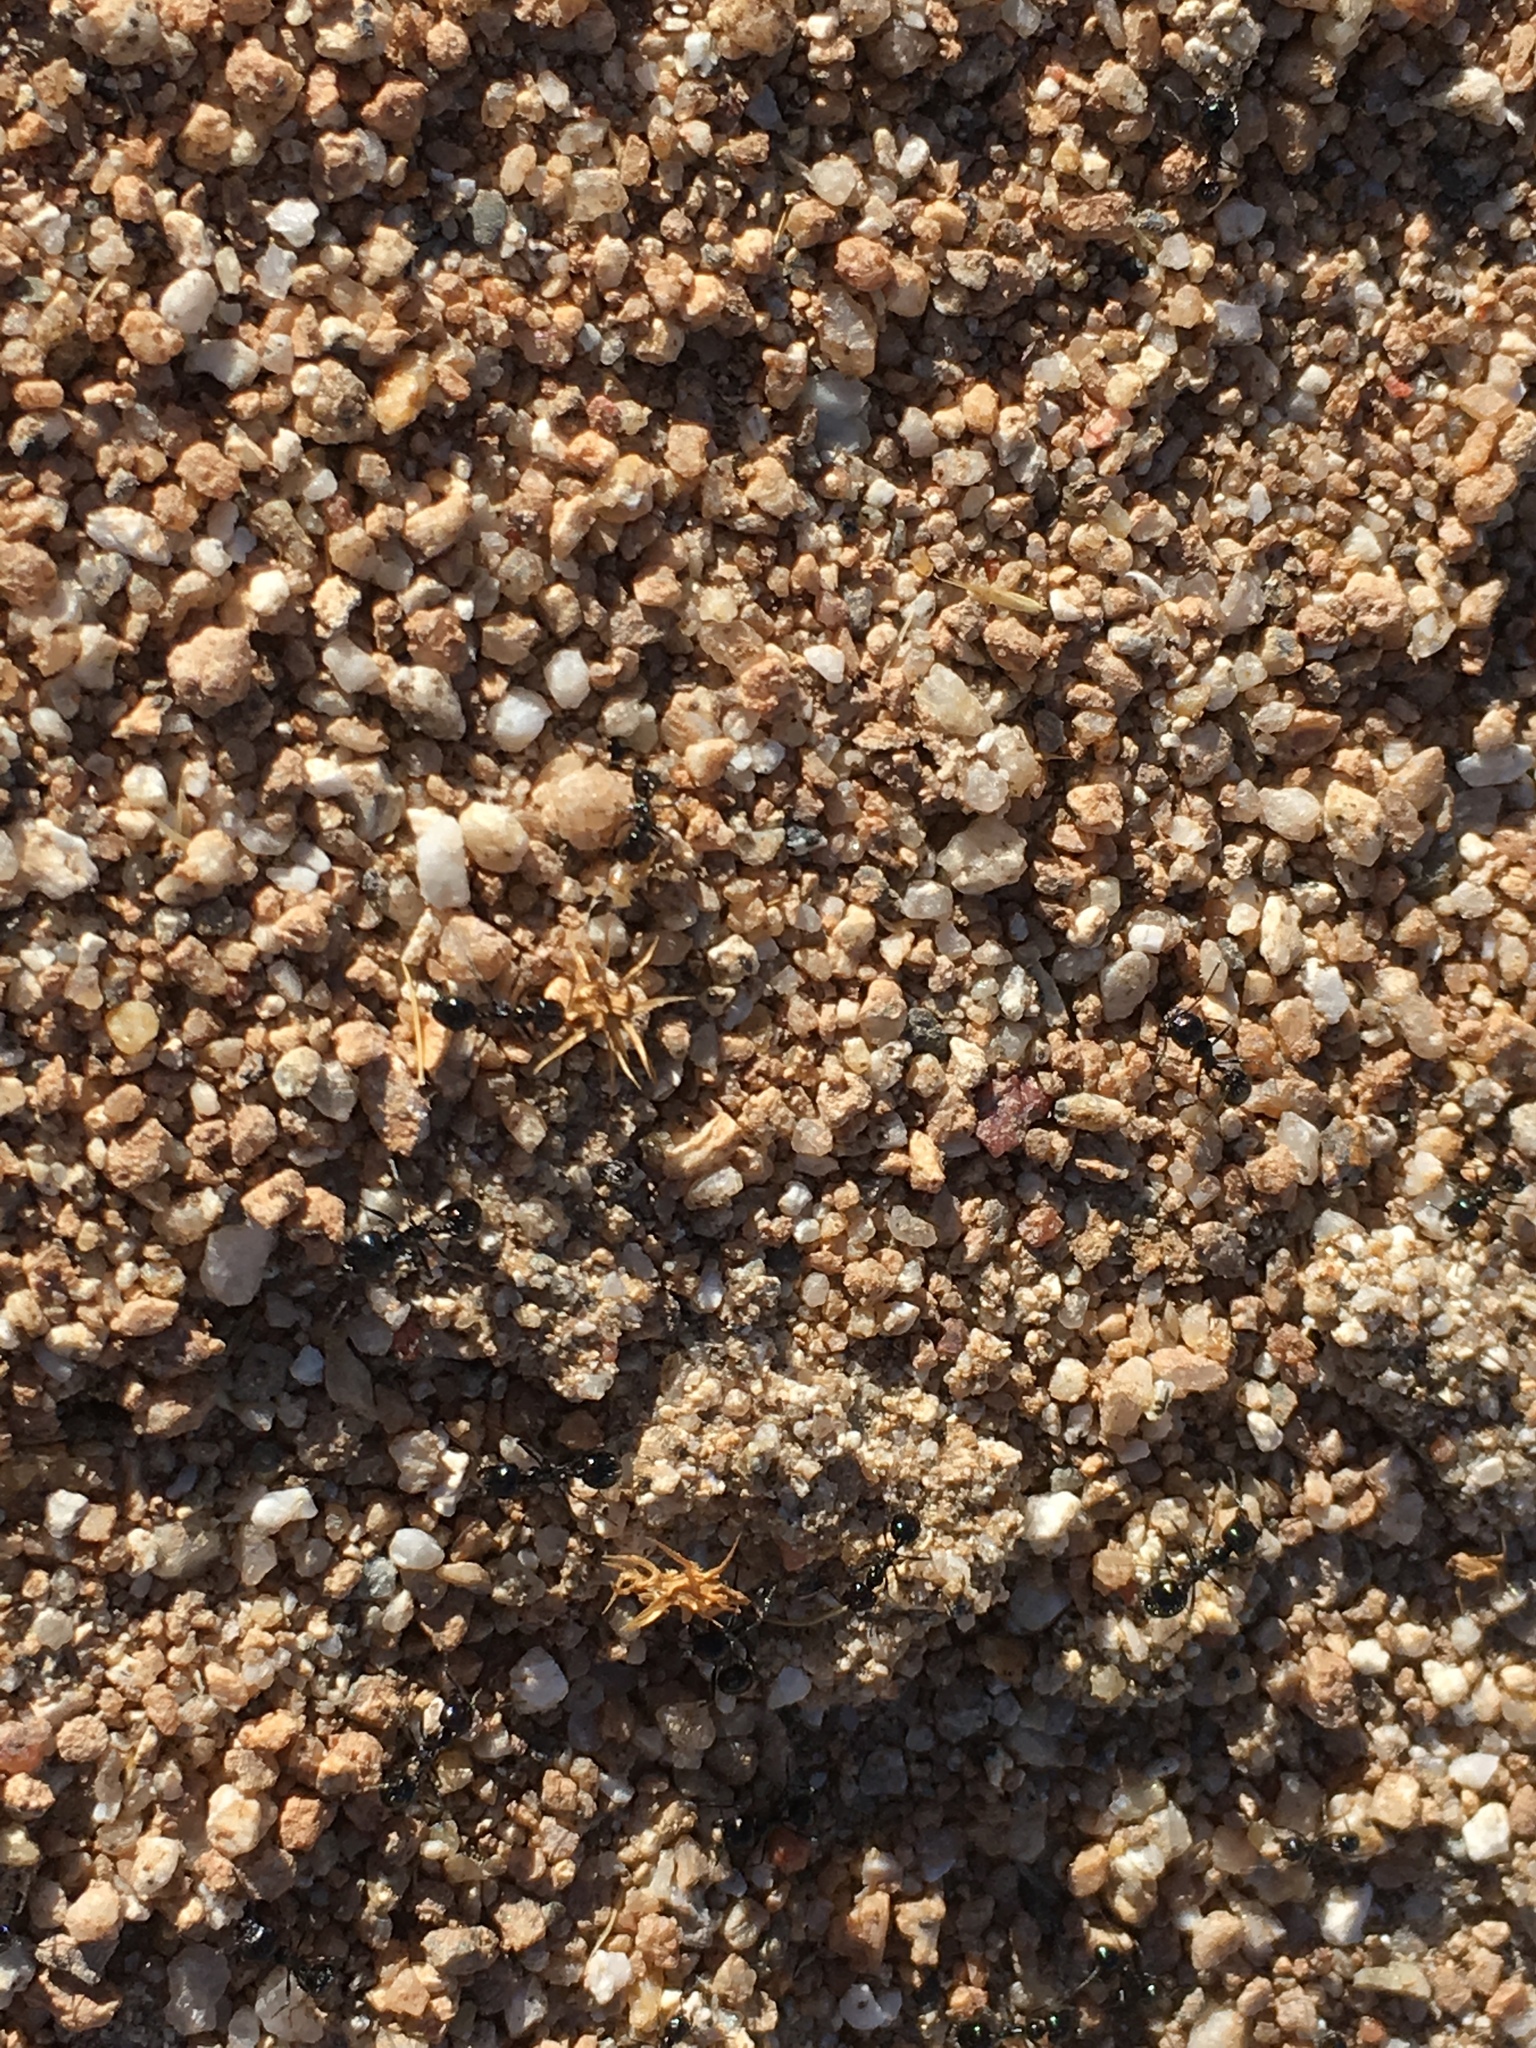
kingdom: Animalia
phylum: Arthropoda
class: Insecta
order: Hymenoptera
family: Formicidae
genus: Messor
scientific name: Messor pergandei
